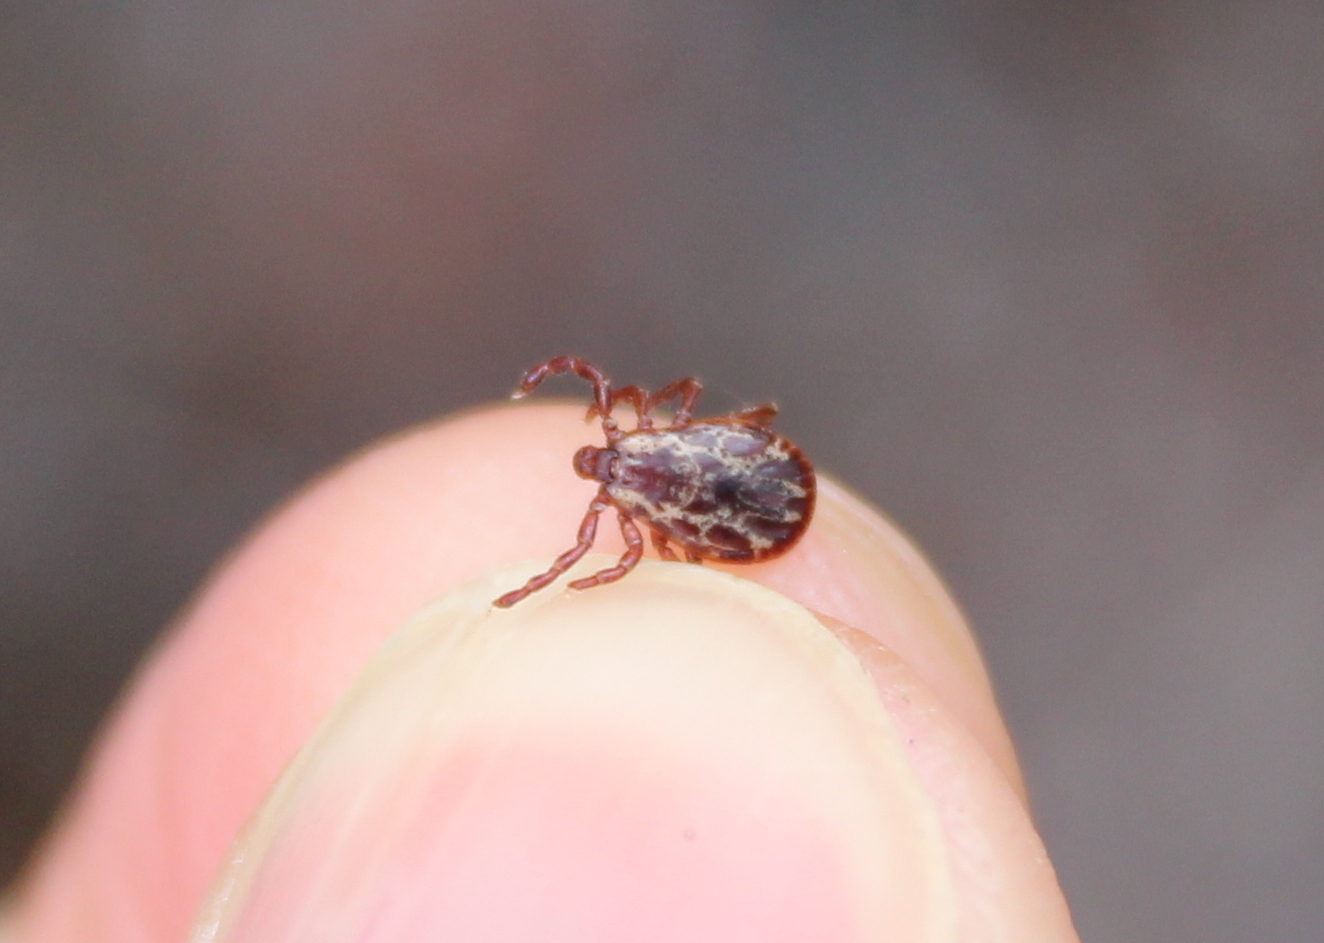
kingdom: Animalia
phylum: Arthropoda
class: Arachnida
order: Ixodida
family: Ixodidae
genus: Dermacentor
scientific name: Dermacentor variabilis
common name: American dog tick
